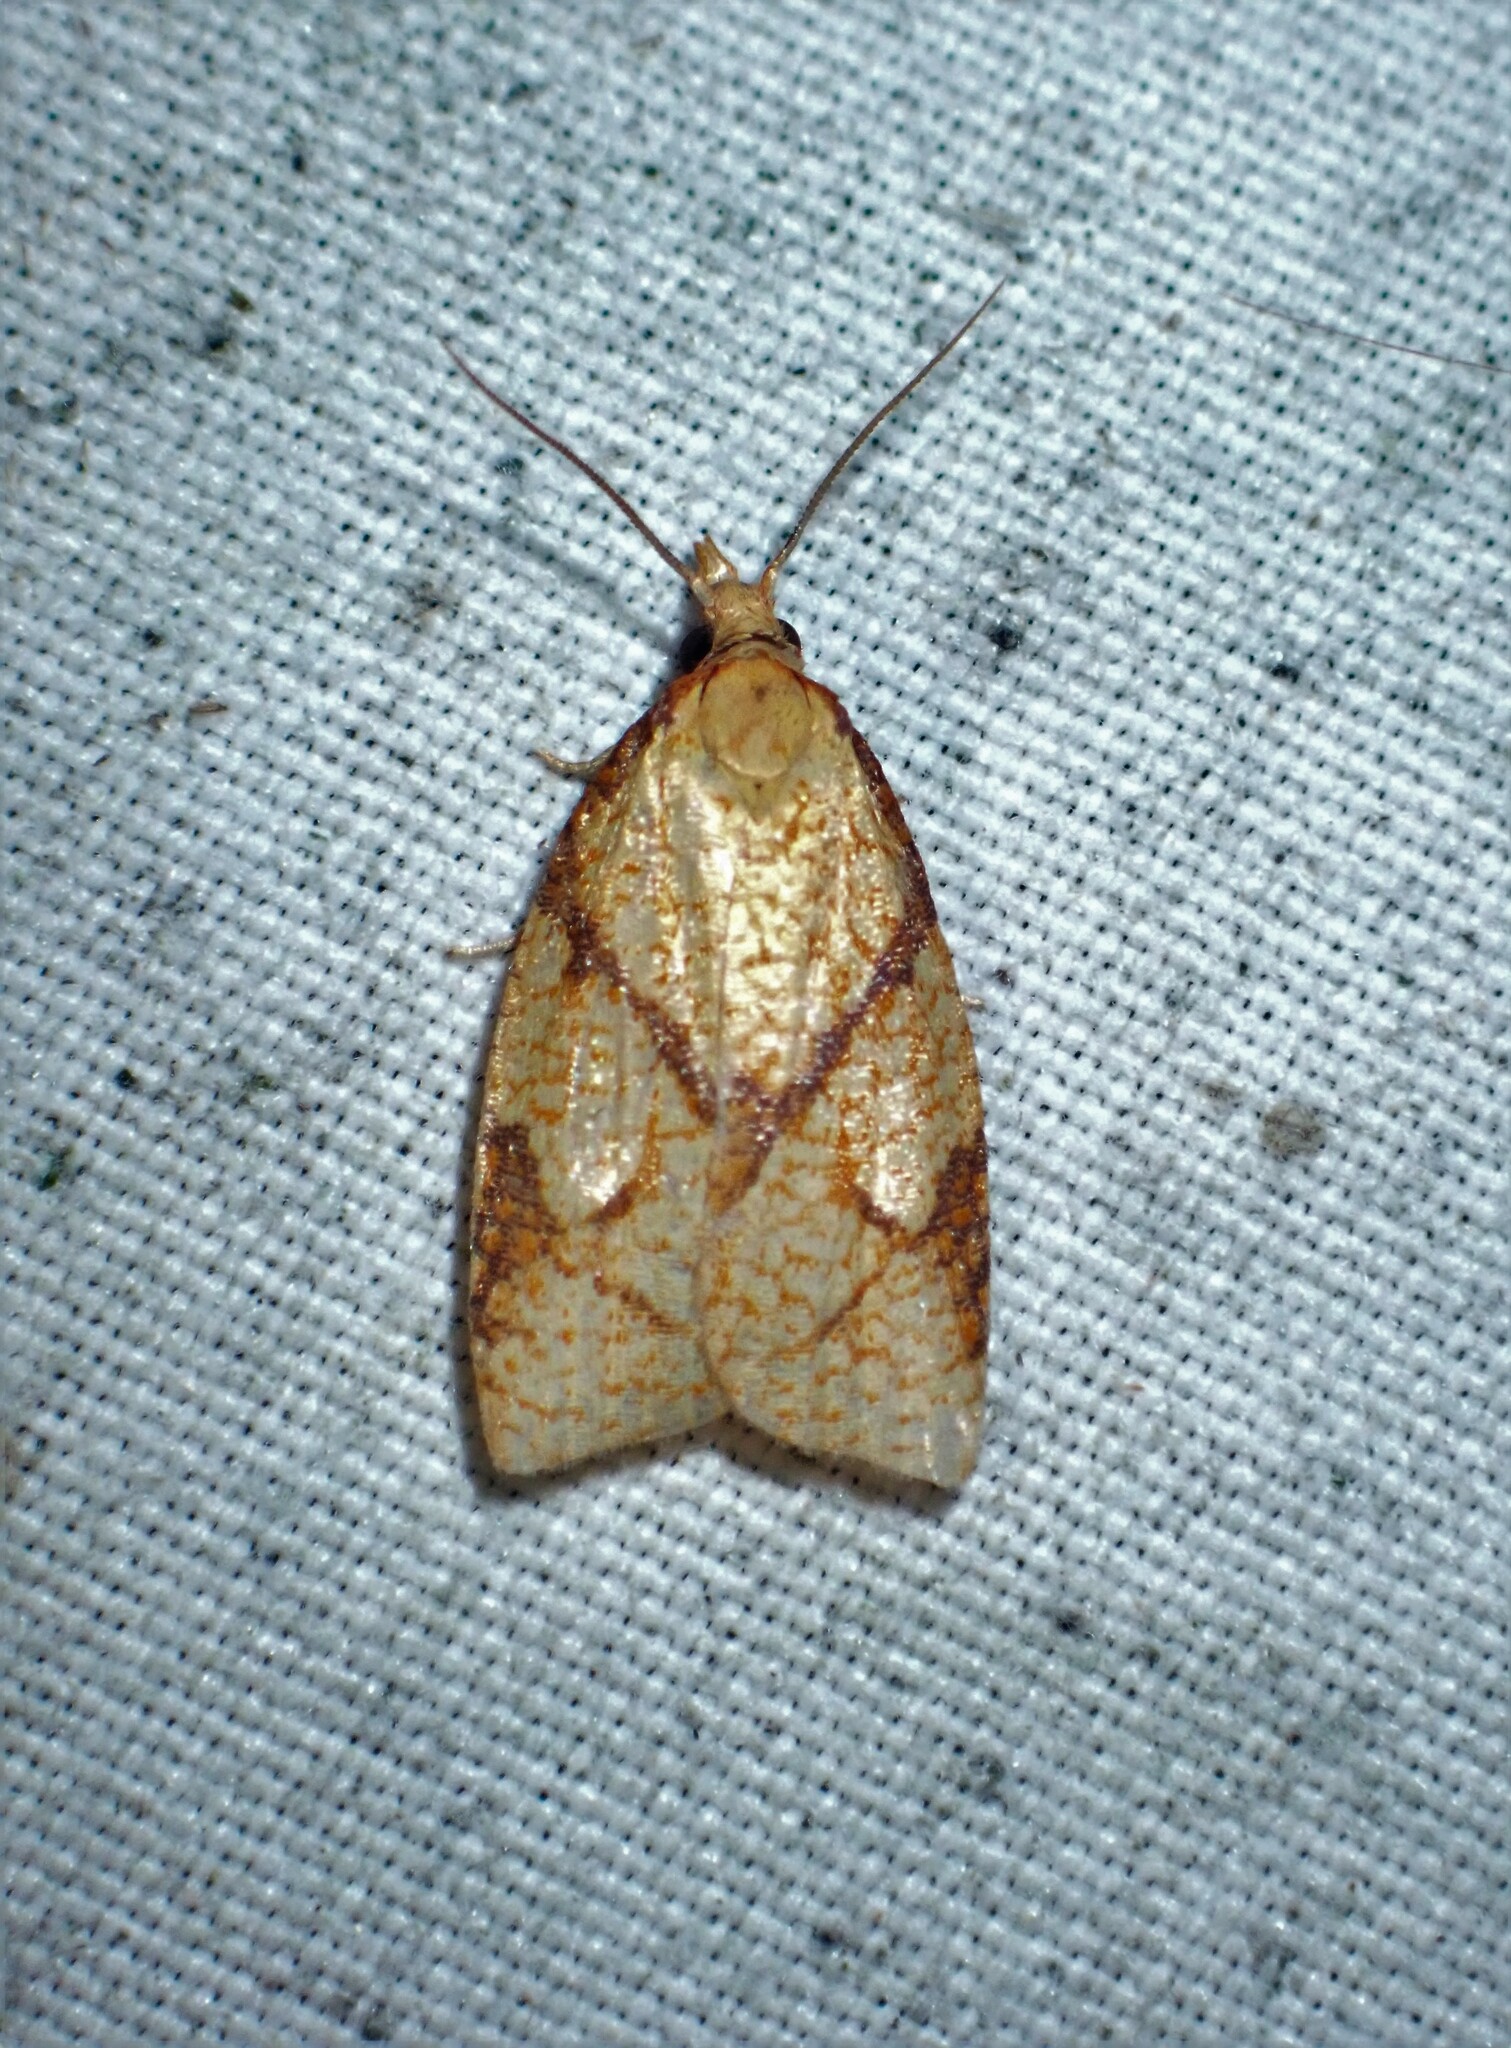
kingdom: Animalia
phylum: Arthropoda
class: Insecta
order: Lepidoptera
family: Tortricidae
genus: Cenopis
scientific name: Cenopis reticulatana
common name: Reticulated fruitworm moth
